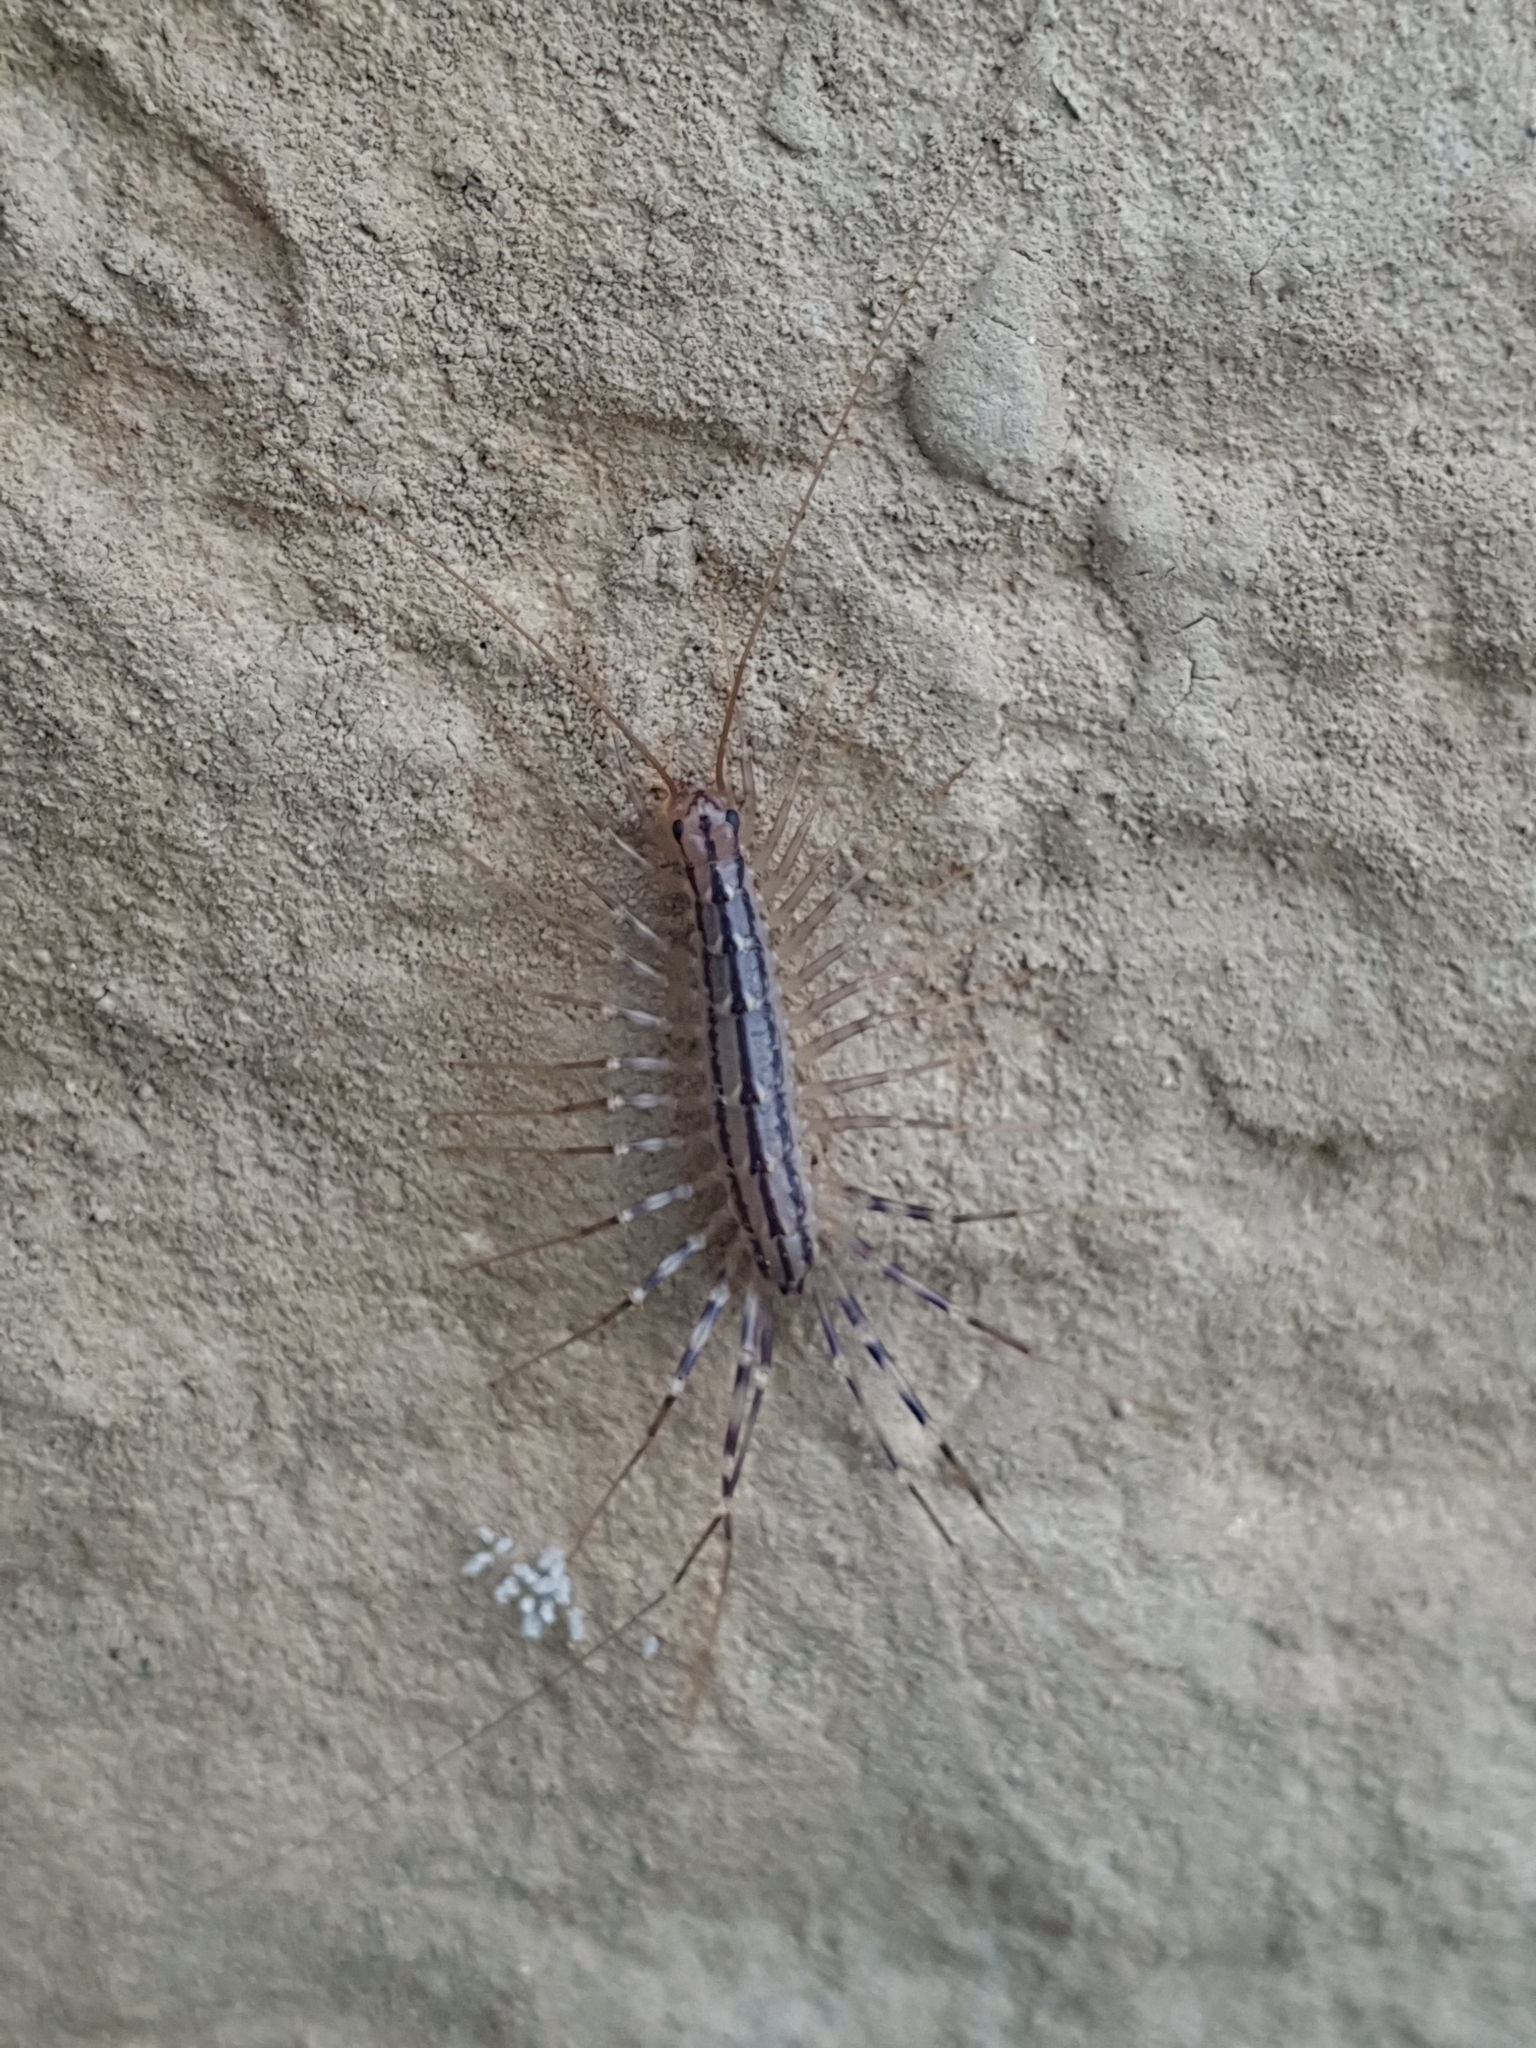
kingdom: Animalia
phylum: Arthropoda
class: Chilopoda
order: Scutigeromorpha
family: Scutigeridae
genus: Scutigera
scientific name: Scutigera coleoptrata
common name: House centipede
